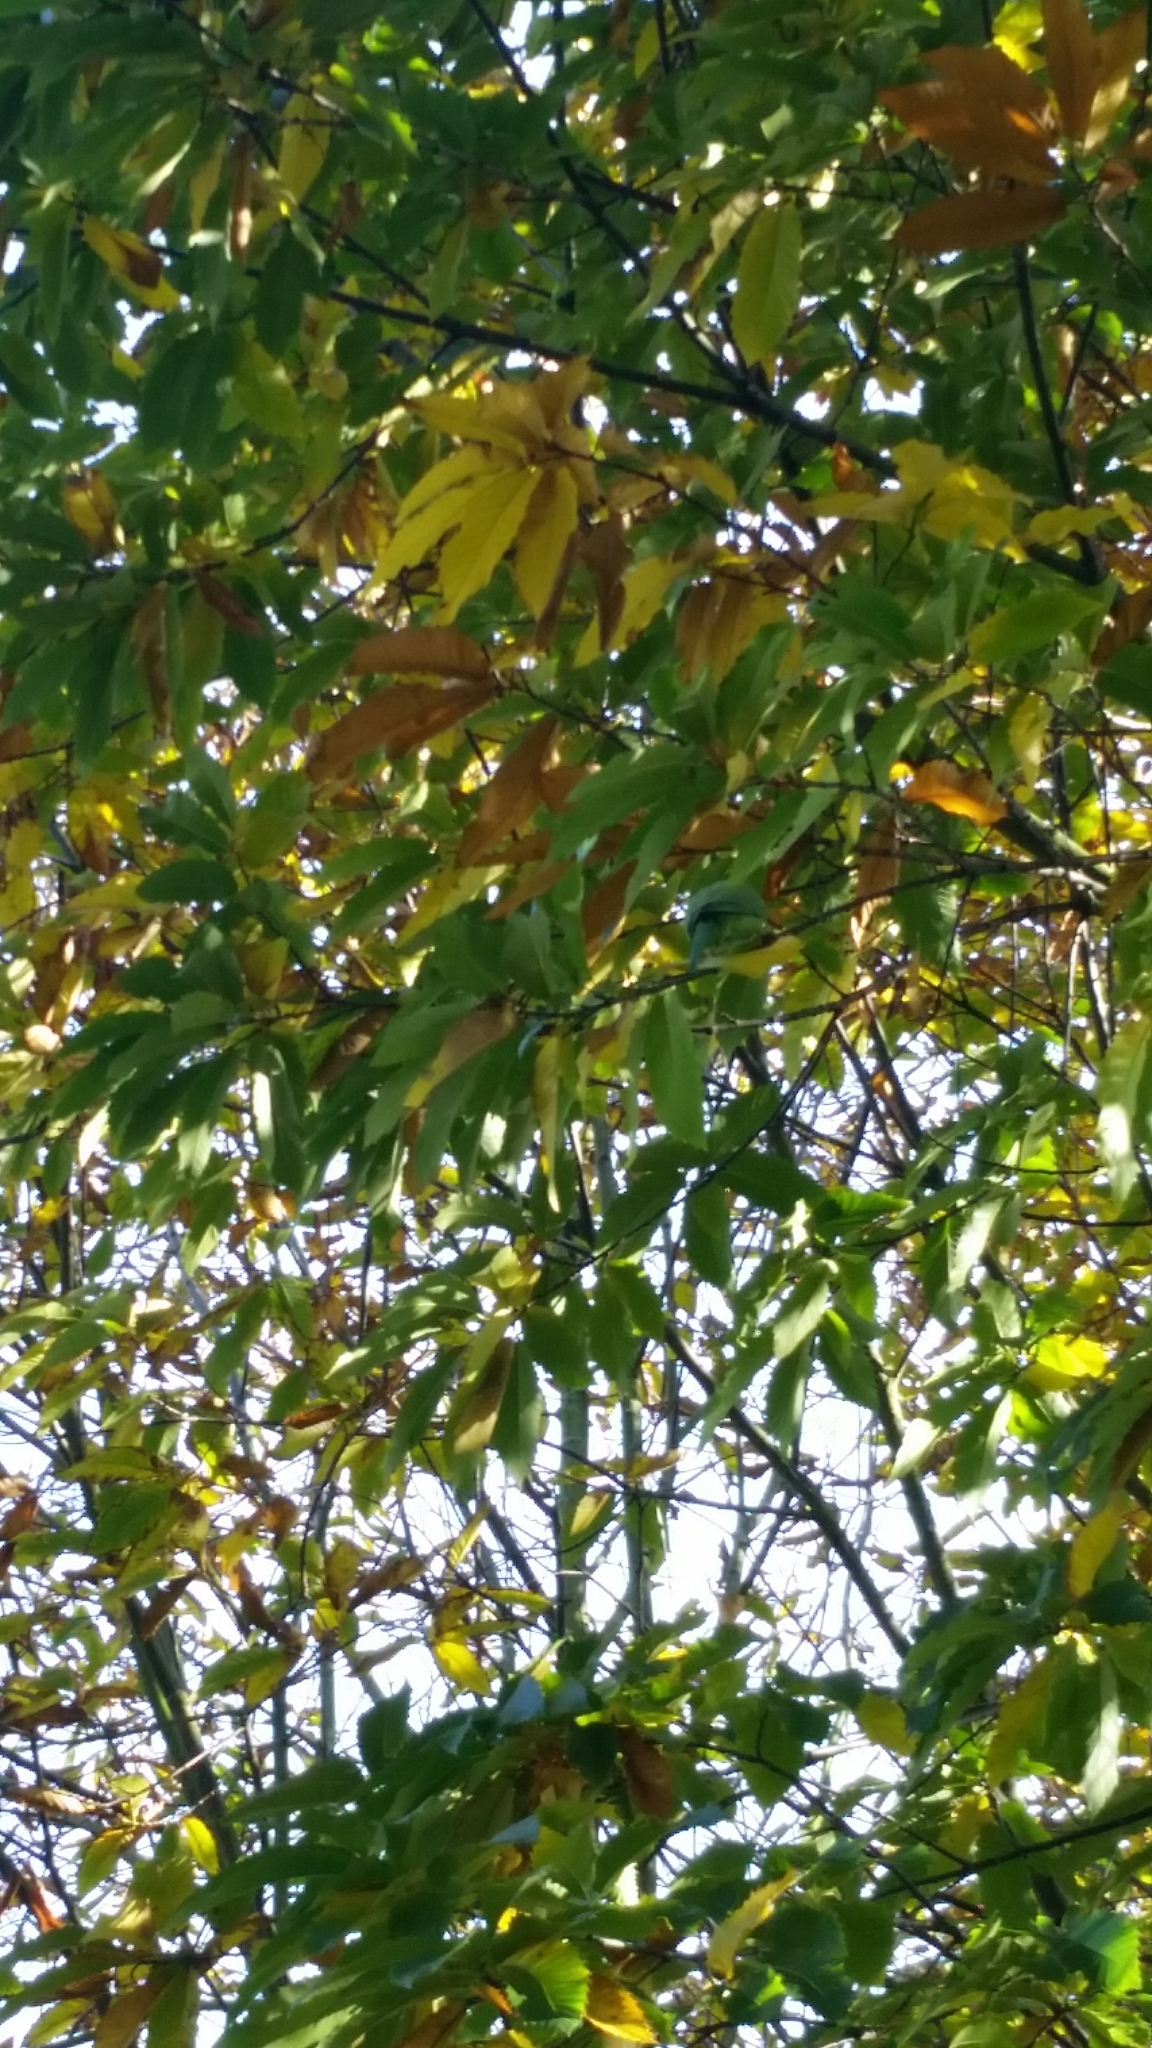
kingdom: Animalia
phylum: Chordata
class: Aves
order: Psittaciformes
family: Psittacidae
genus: Psittacula
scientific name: Psittacula krameri
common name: Rose-ringed parakeet
